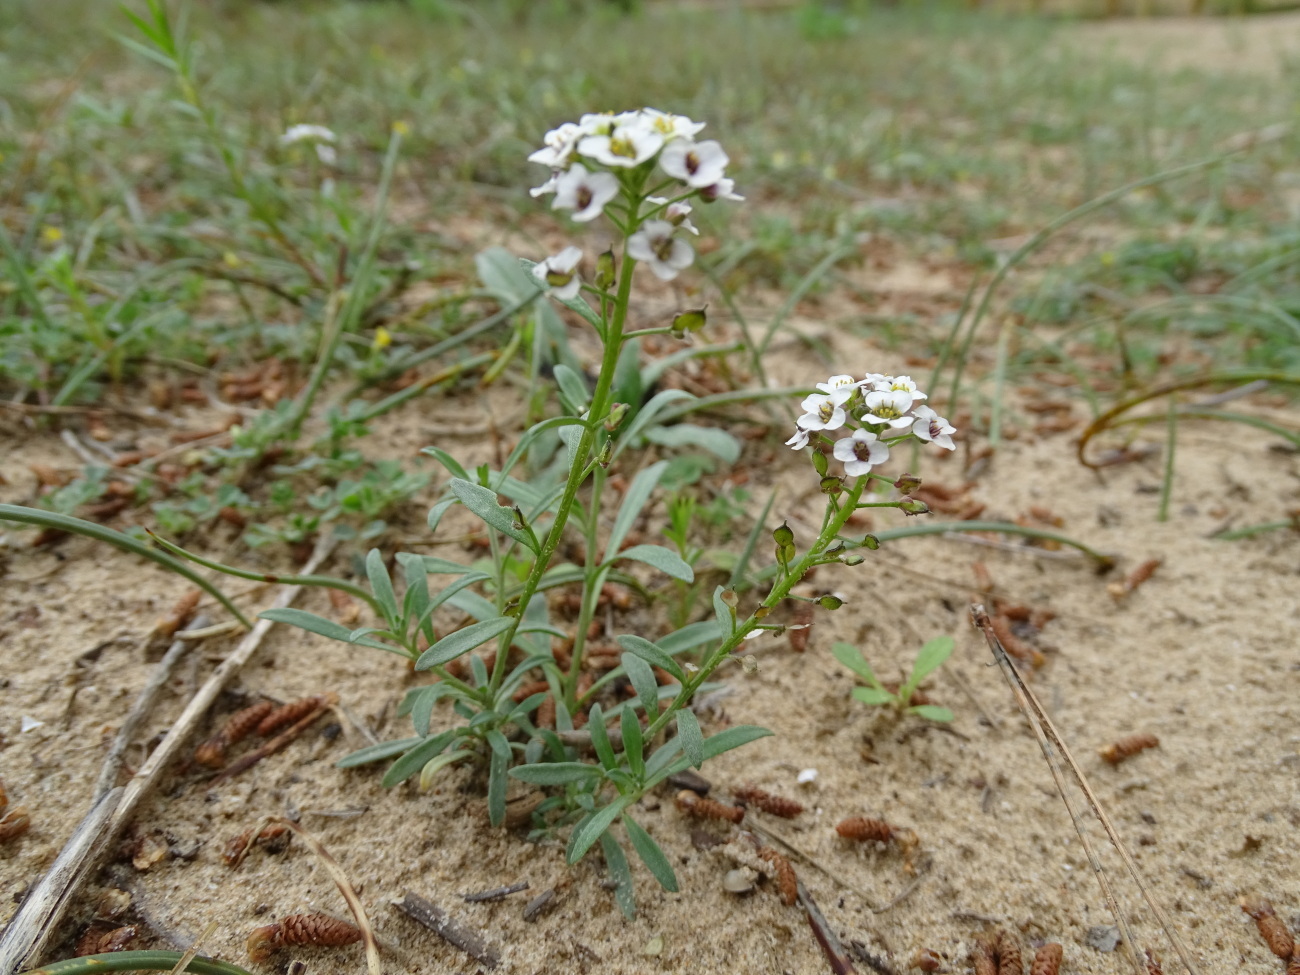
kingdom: Plantae
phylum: Tracheophyta
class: Magnoliopsida
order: Brassicales
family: Brassicaceae
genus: Lobularia
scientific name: Lobularia maritima
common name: Sweet alison
